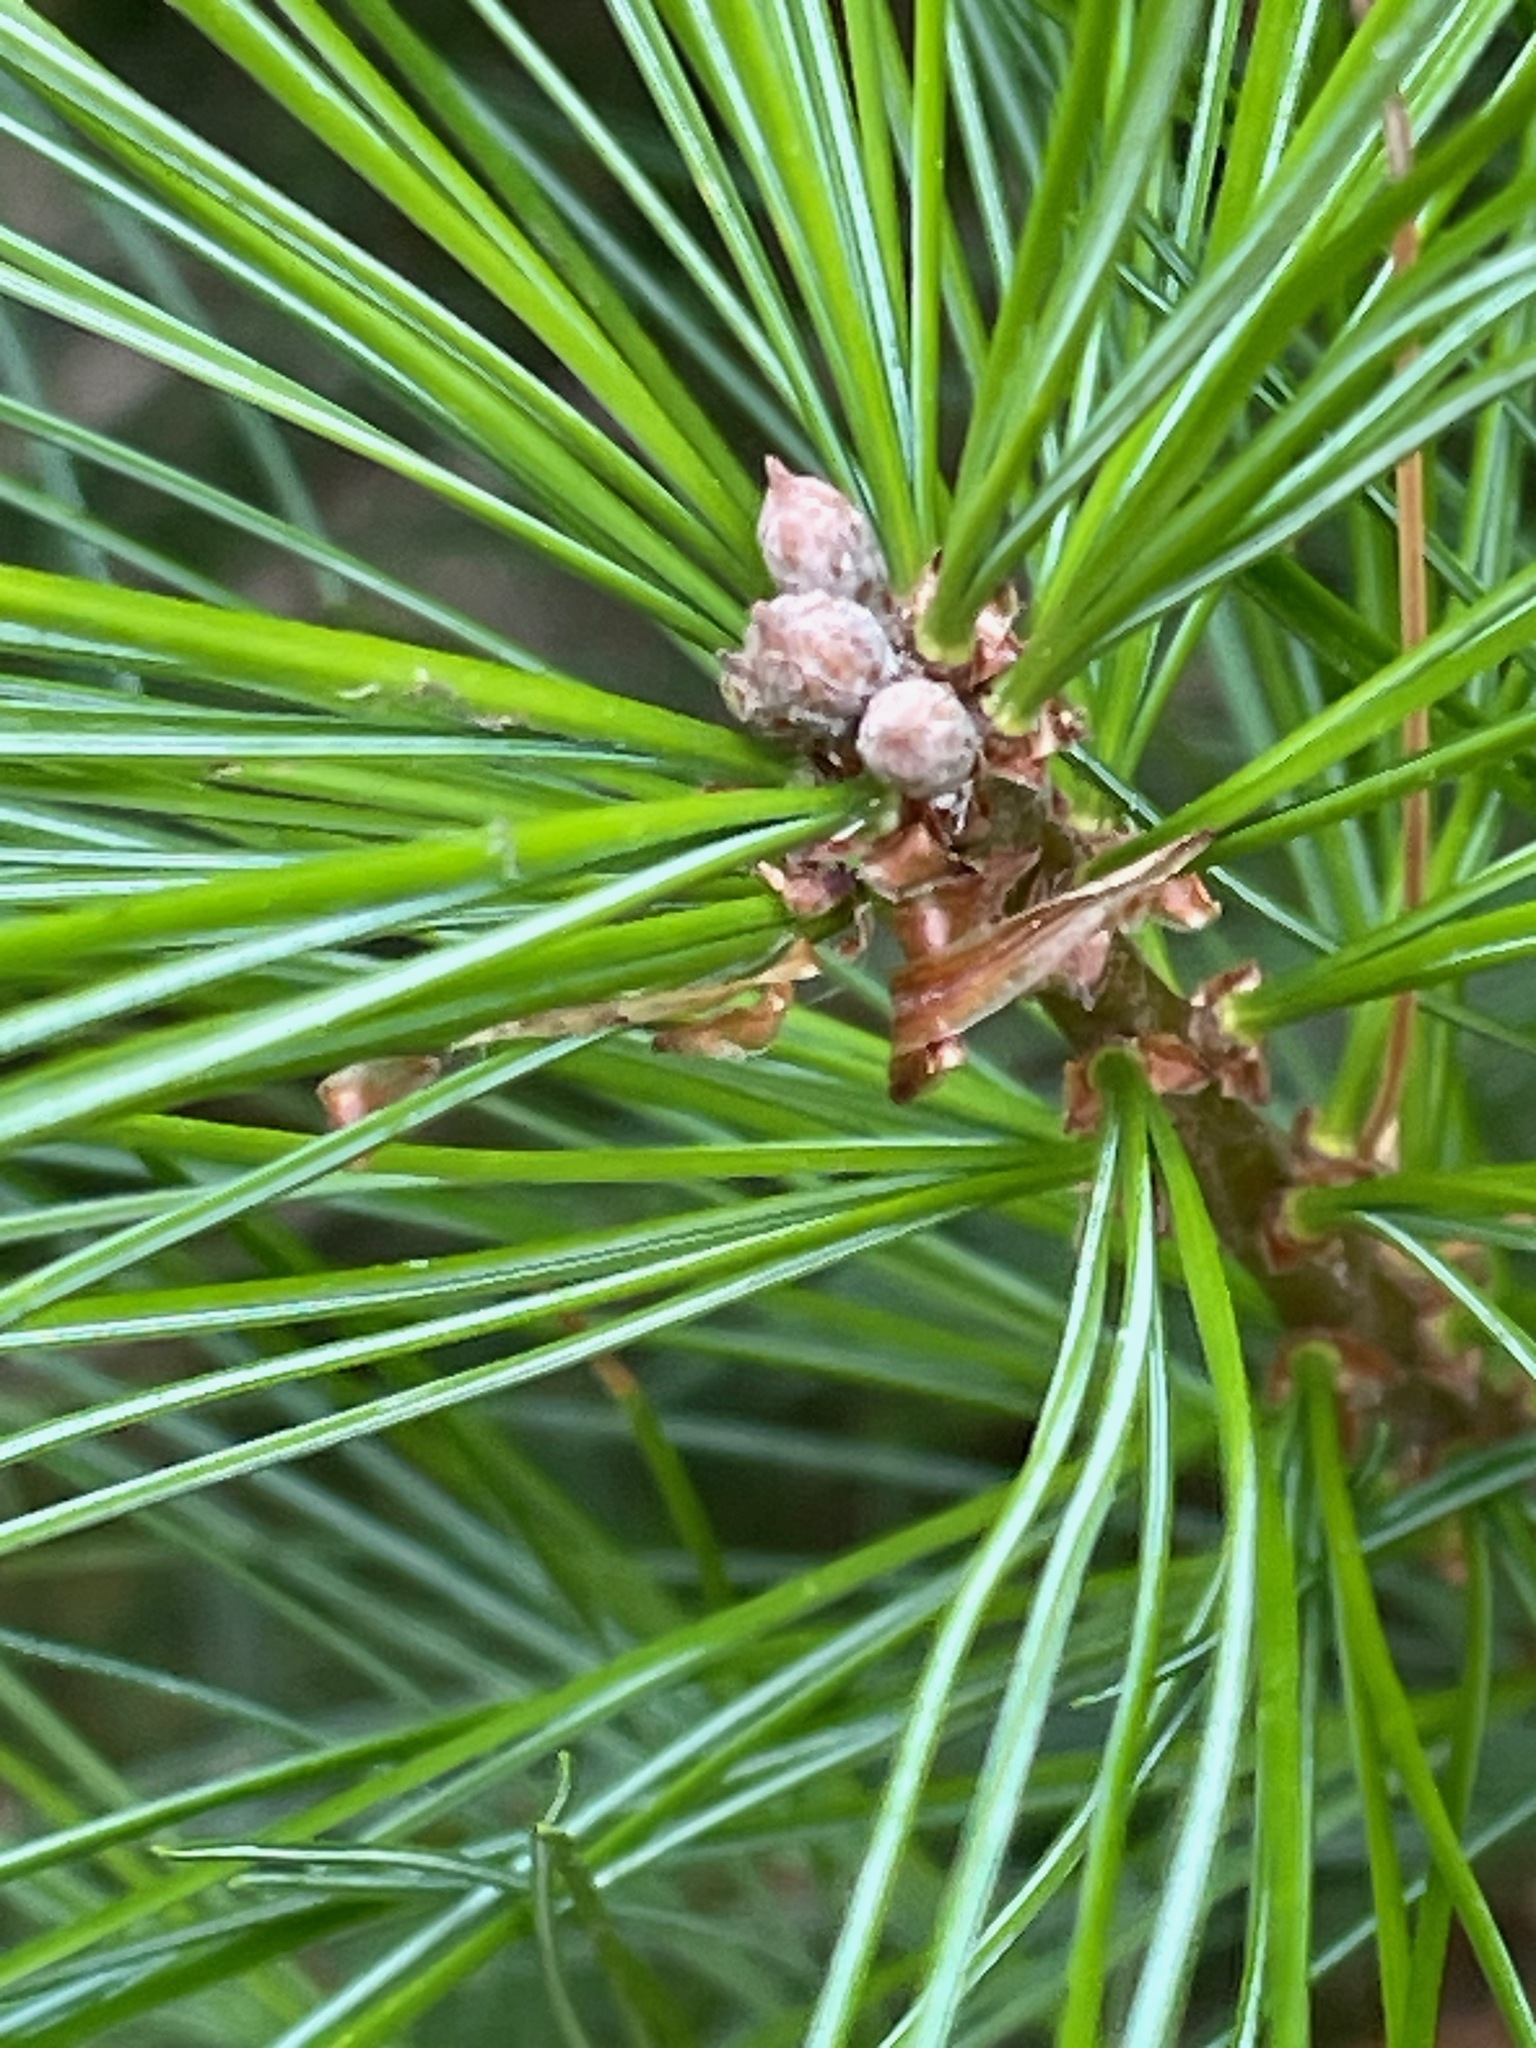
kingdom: Plantae
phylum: Tracheophyta
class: Pinopsida
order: Pinales
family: Pinaceae
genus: Pinus
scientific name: Pinus strobus
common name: Weymouth pine
